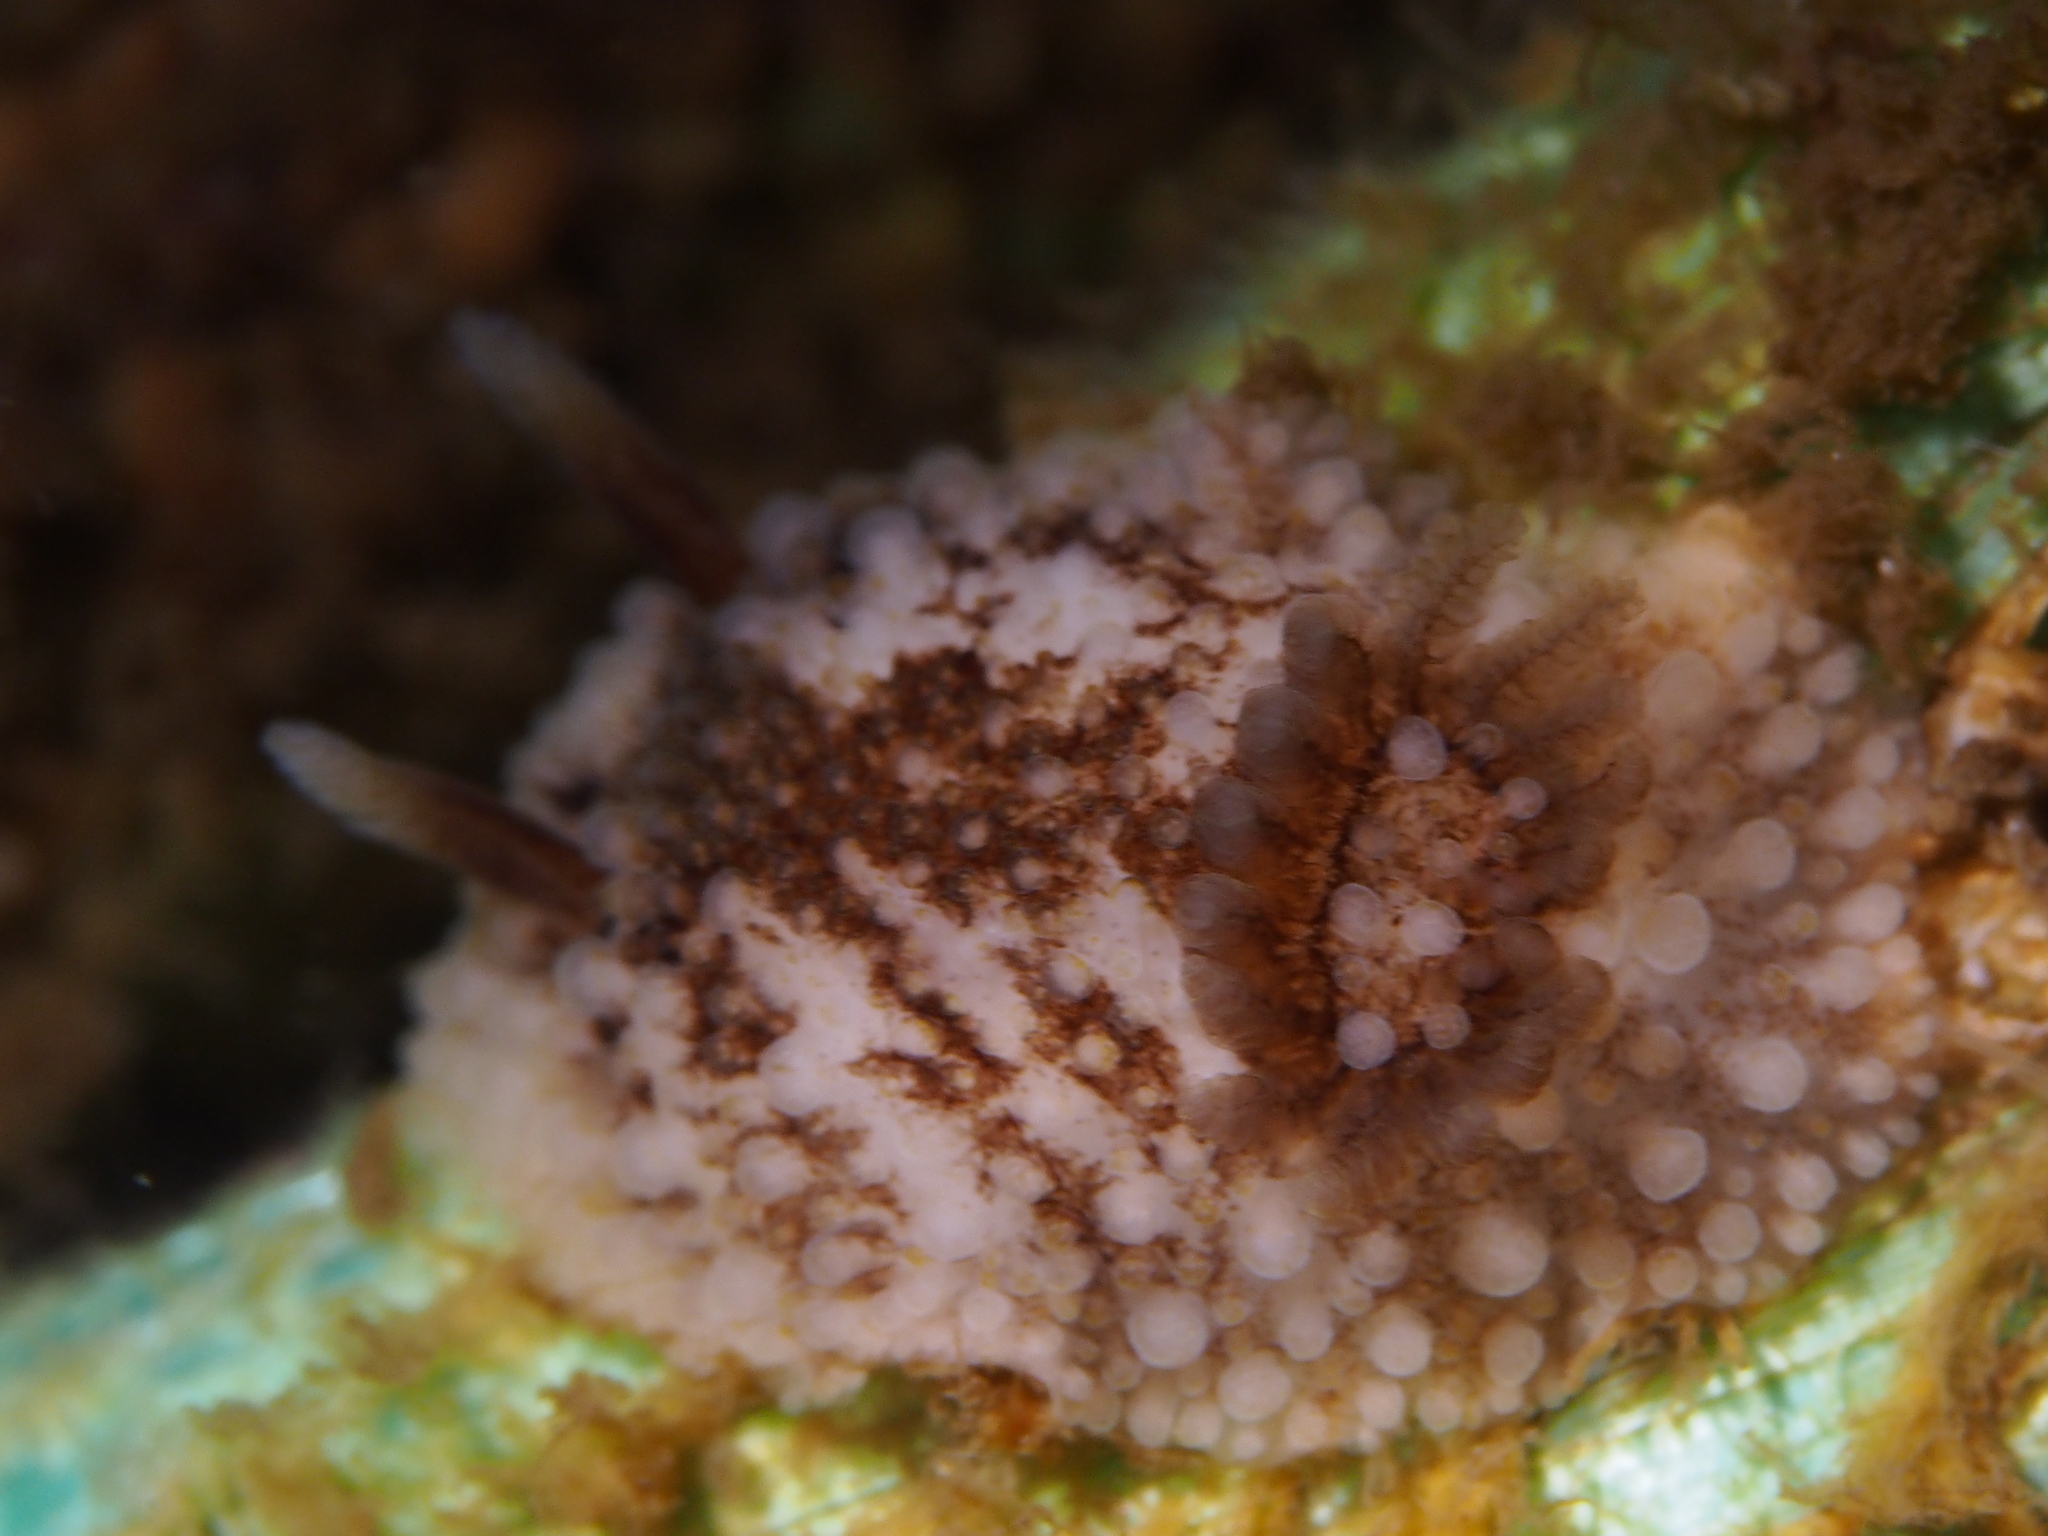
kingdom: Animalia
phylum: Mollusca
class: Gastropoda
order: Nudibranchia
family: Onchidorididae
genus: Onchidoris
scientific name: Onchidoris bilamellata
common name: Barnacle-eating onchidoris
